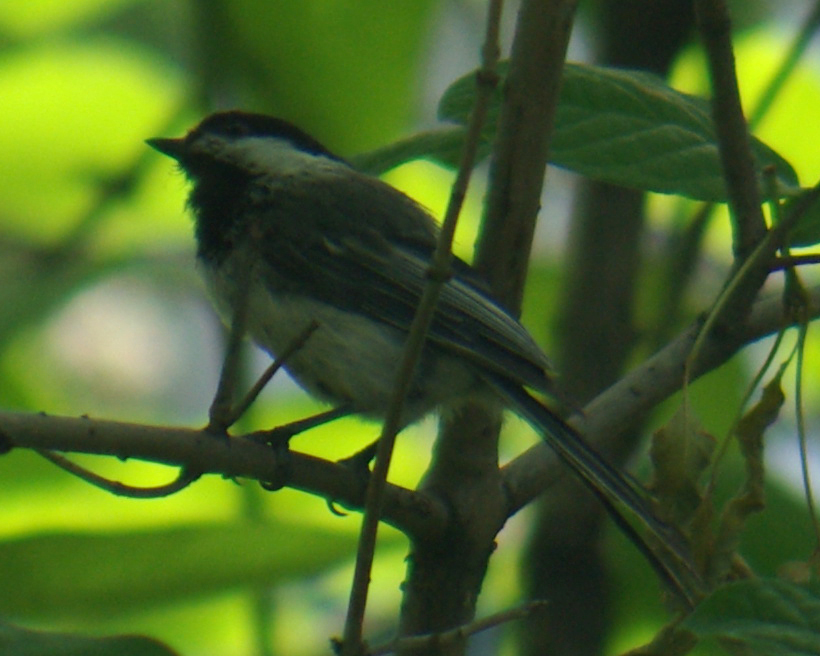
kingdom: Animalia
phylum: Chordata
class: Aves
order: Passeriformes
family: Paridae
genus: Poecile
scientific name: Poecile atricapillus
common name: Black-capped chickadee
